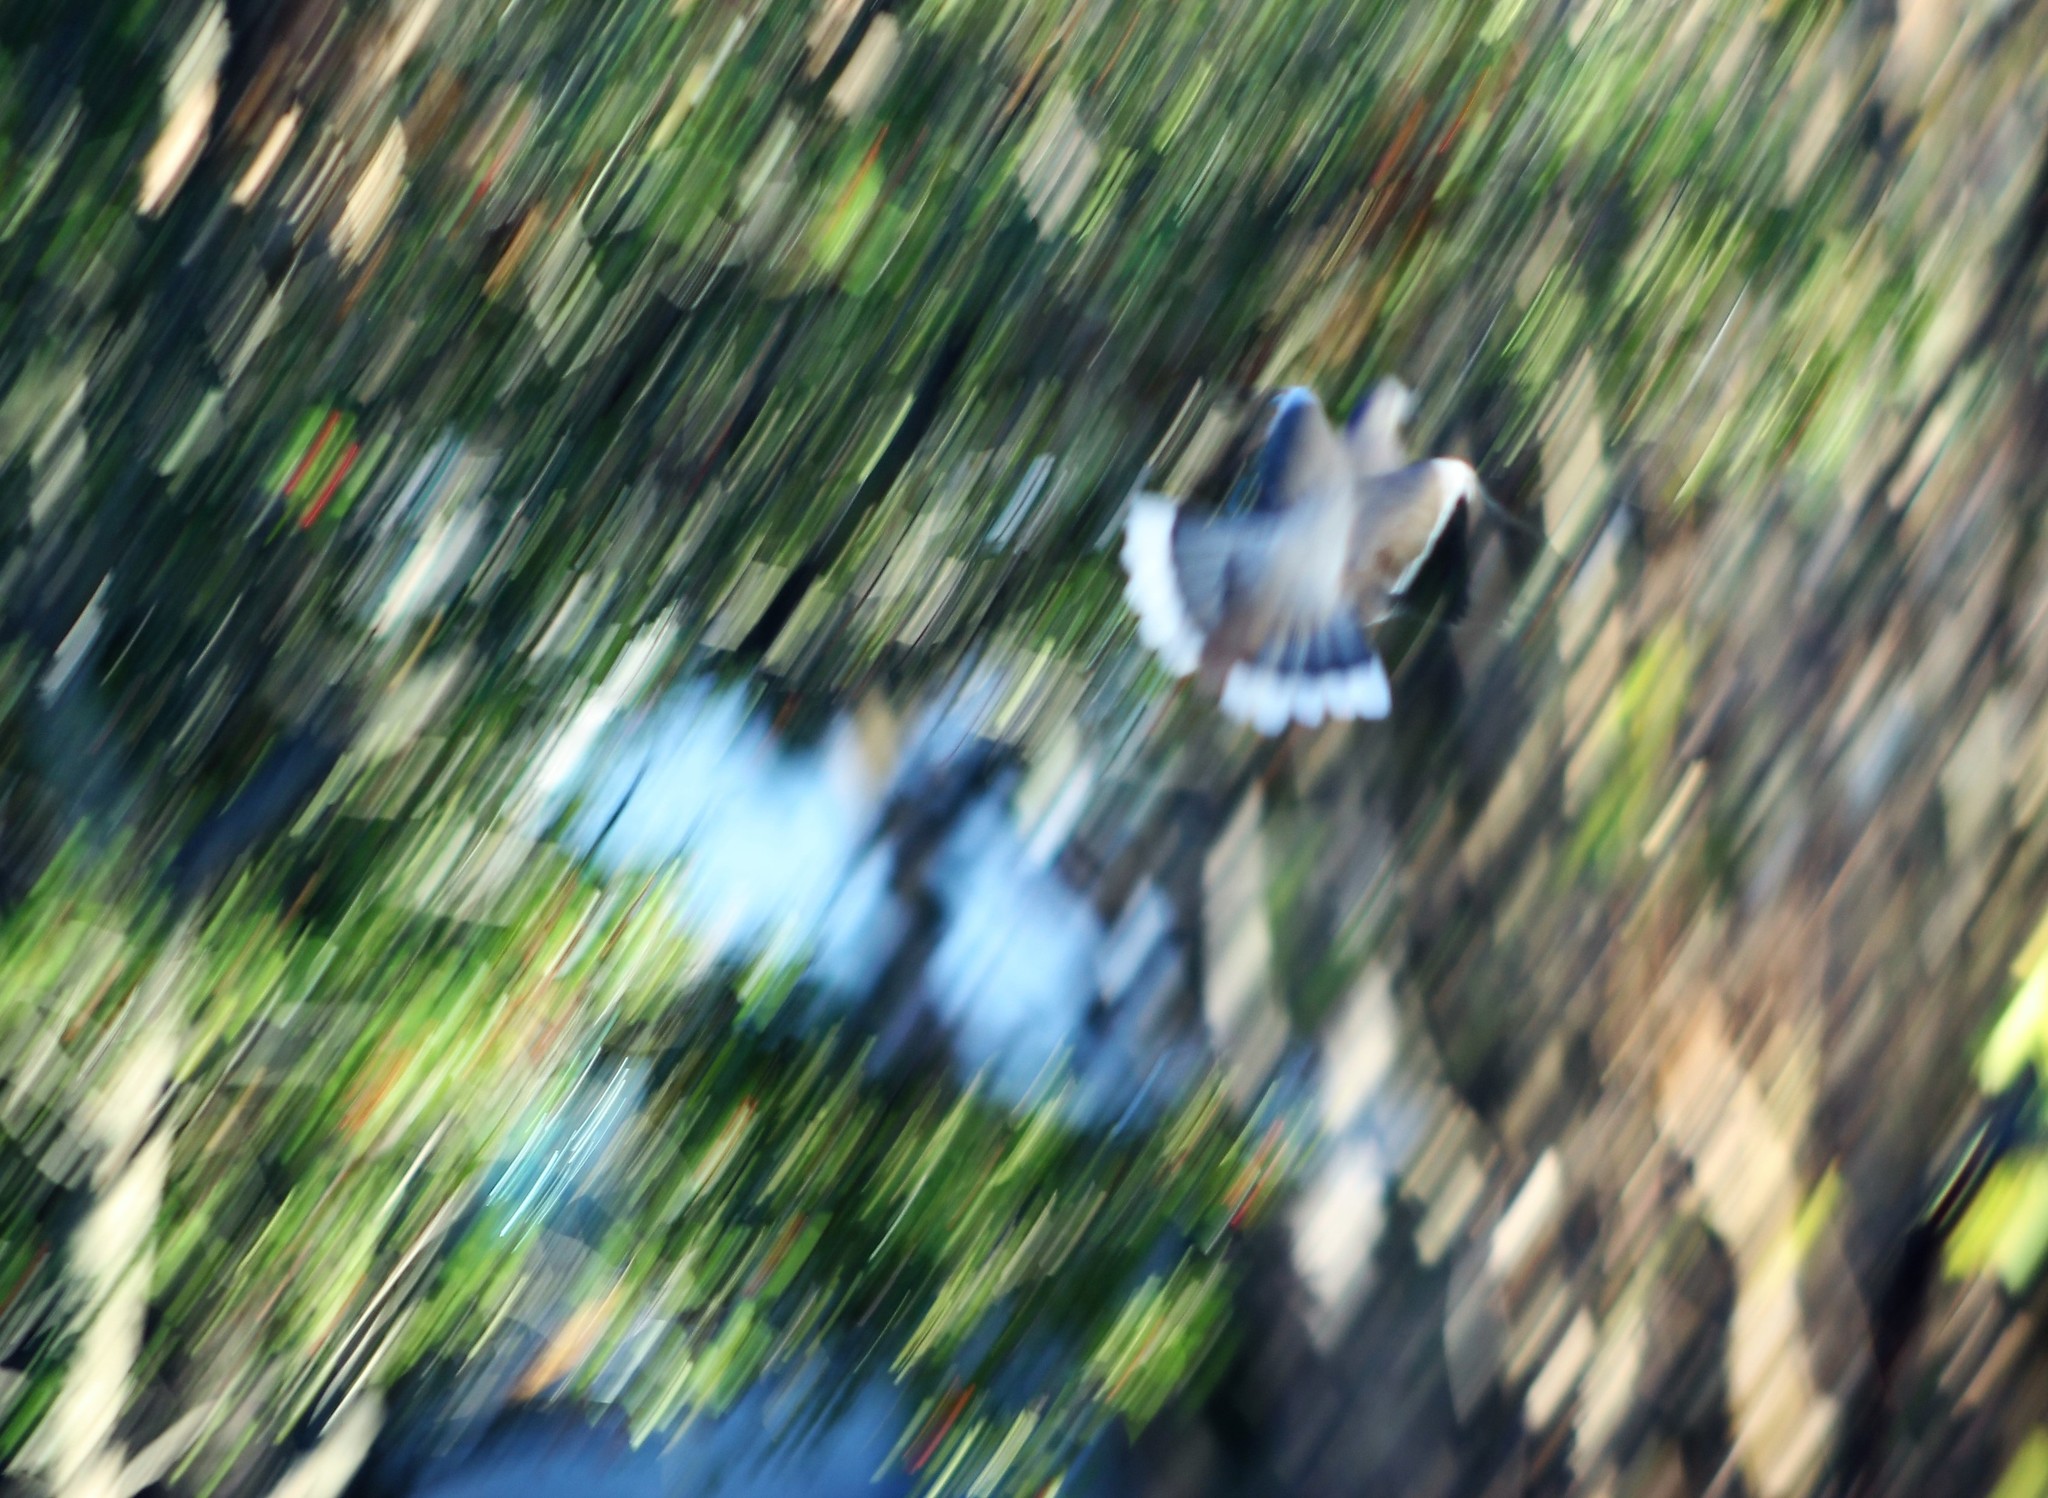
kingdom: Animalia
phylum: Chordata
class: Aves
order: Columbiformes
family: Columbidae
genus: Zenaida
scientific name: Zenaida asiatica
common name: White-winged dove
